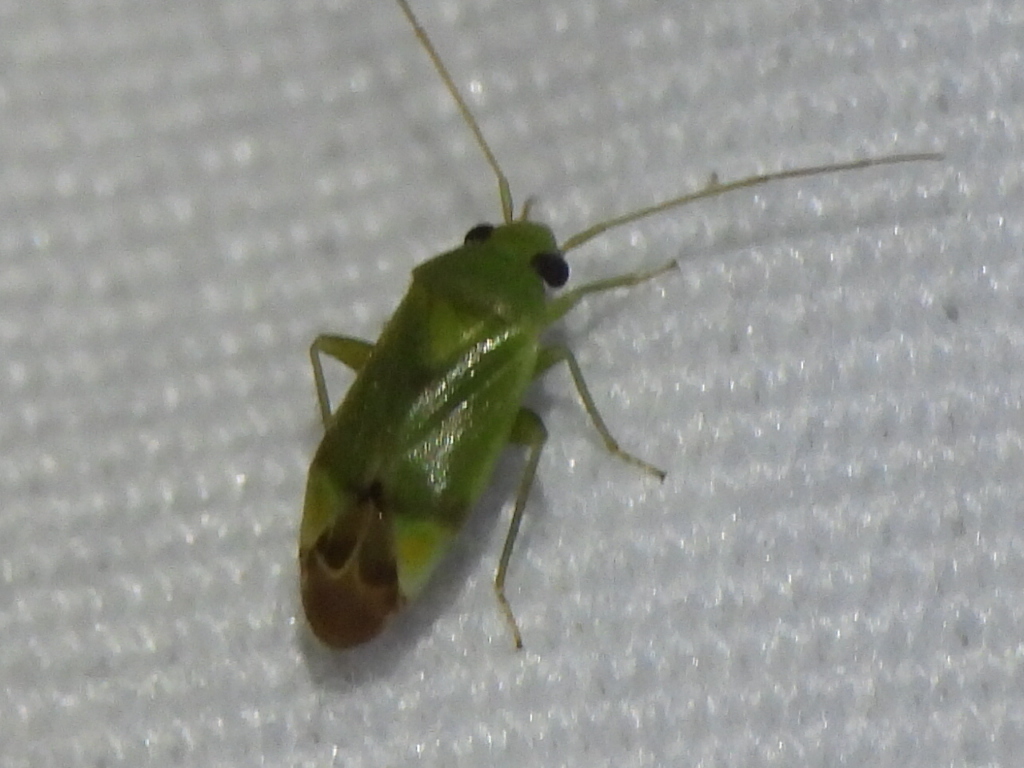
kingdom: Animalia
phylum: Arthropoda
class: Insecta
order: Hemiptera
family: Miridae
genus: Dichrooscytus
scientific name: Dichrooscytus
